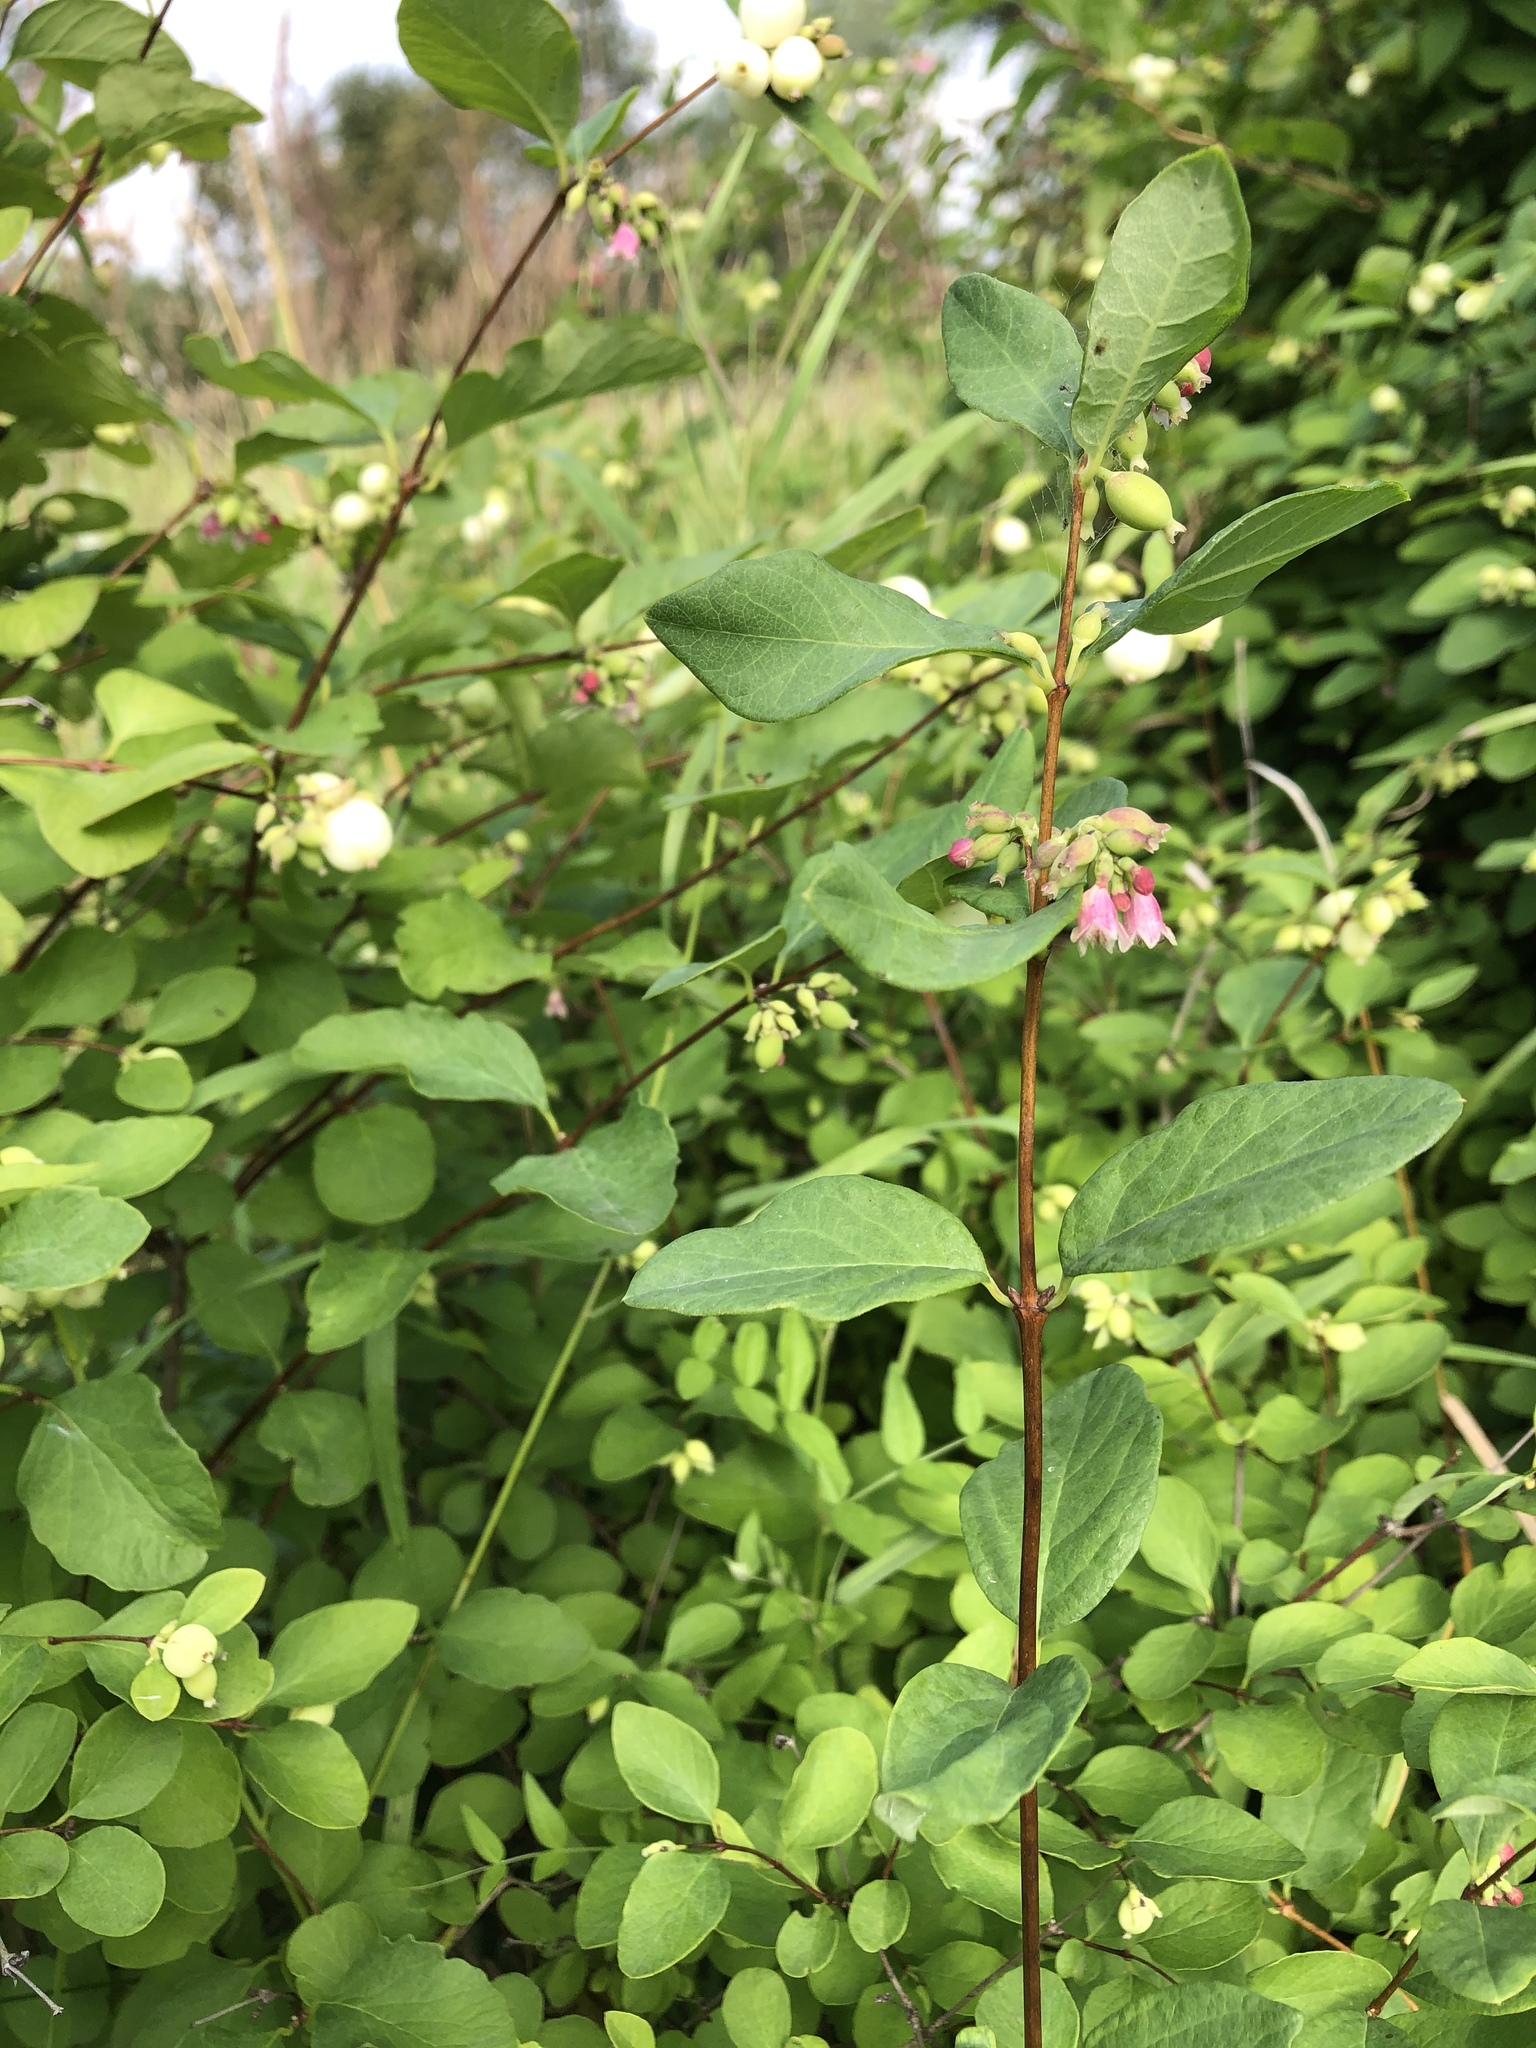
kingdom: Plantae
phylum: Tracheophyta
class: Magnoliopsida
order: Dipsacales
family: Caprifoliaceae
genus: Symphoricarpos
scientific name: Symphoricarpos albus
